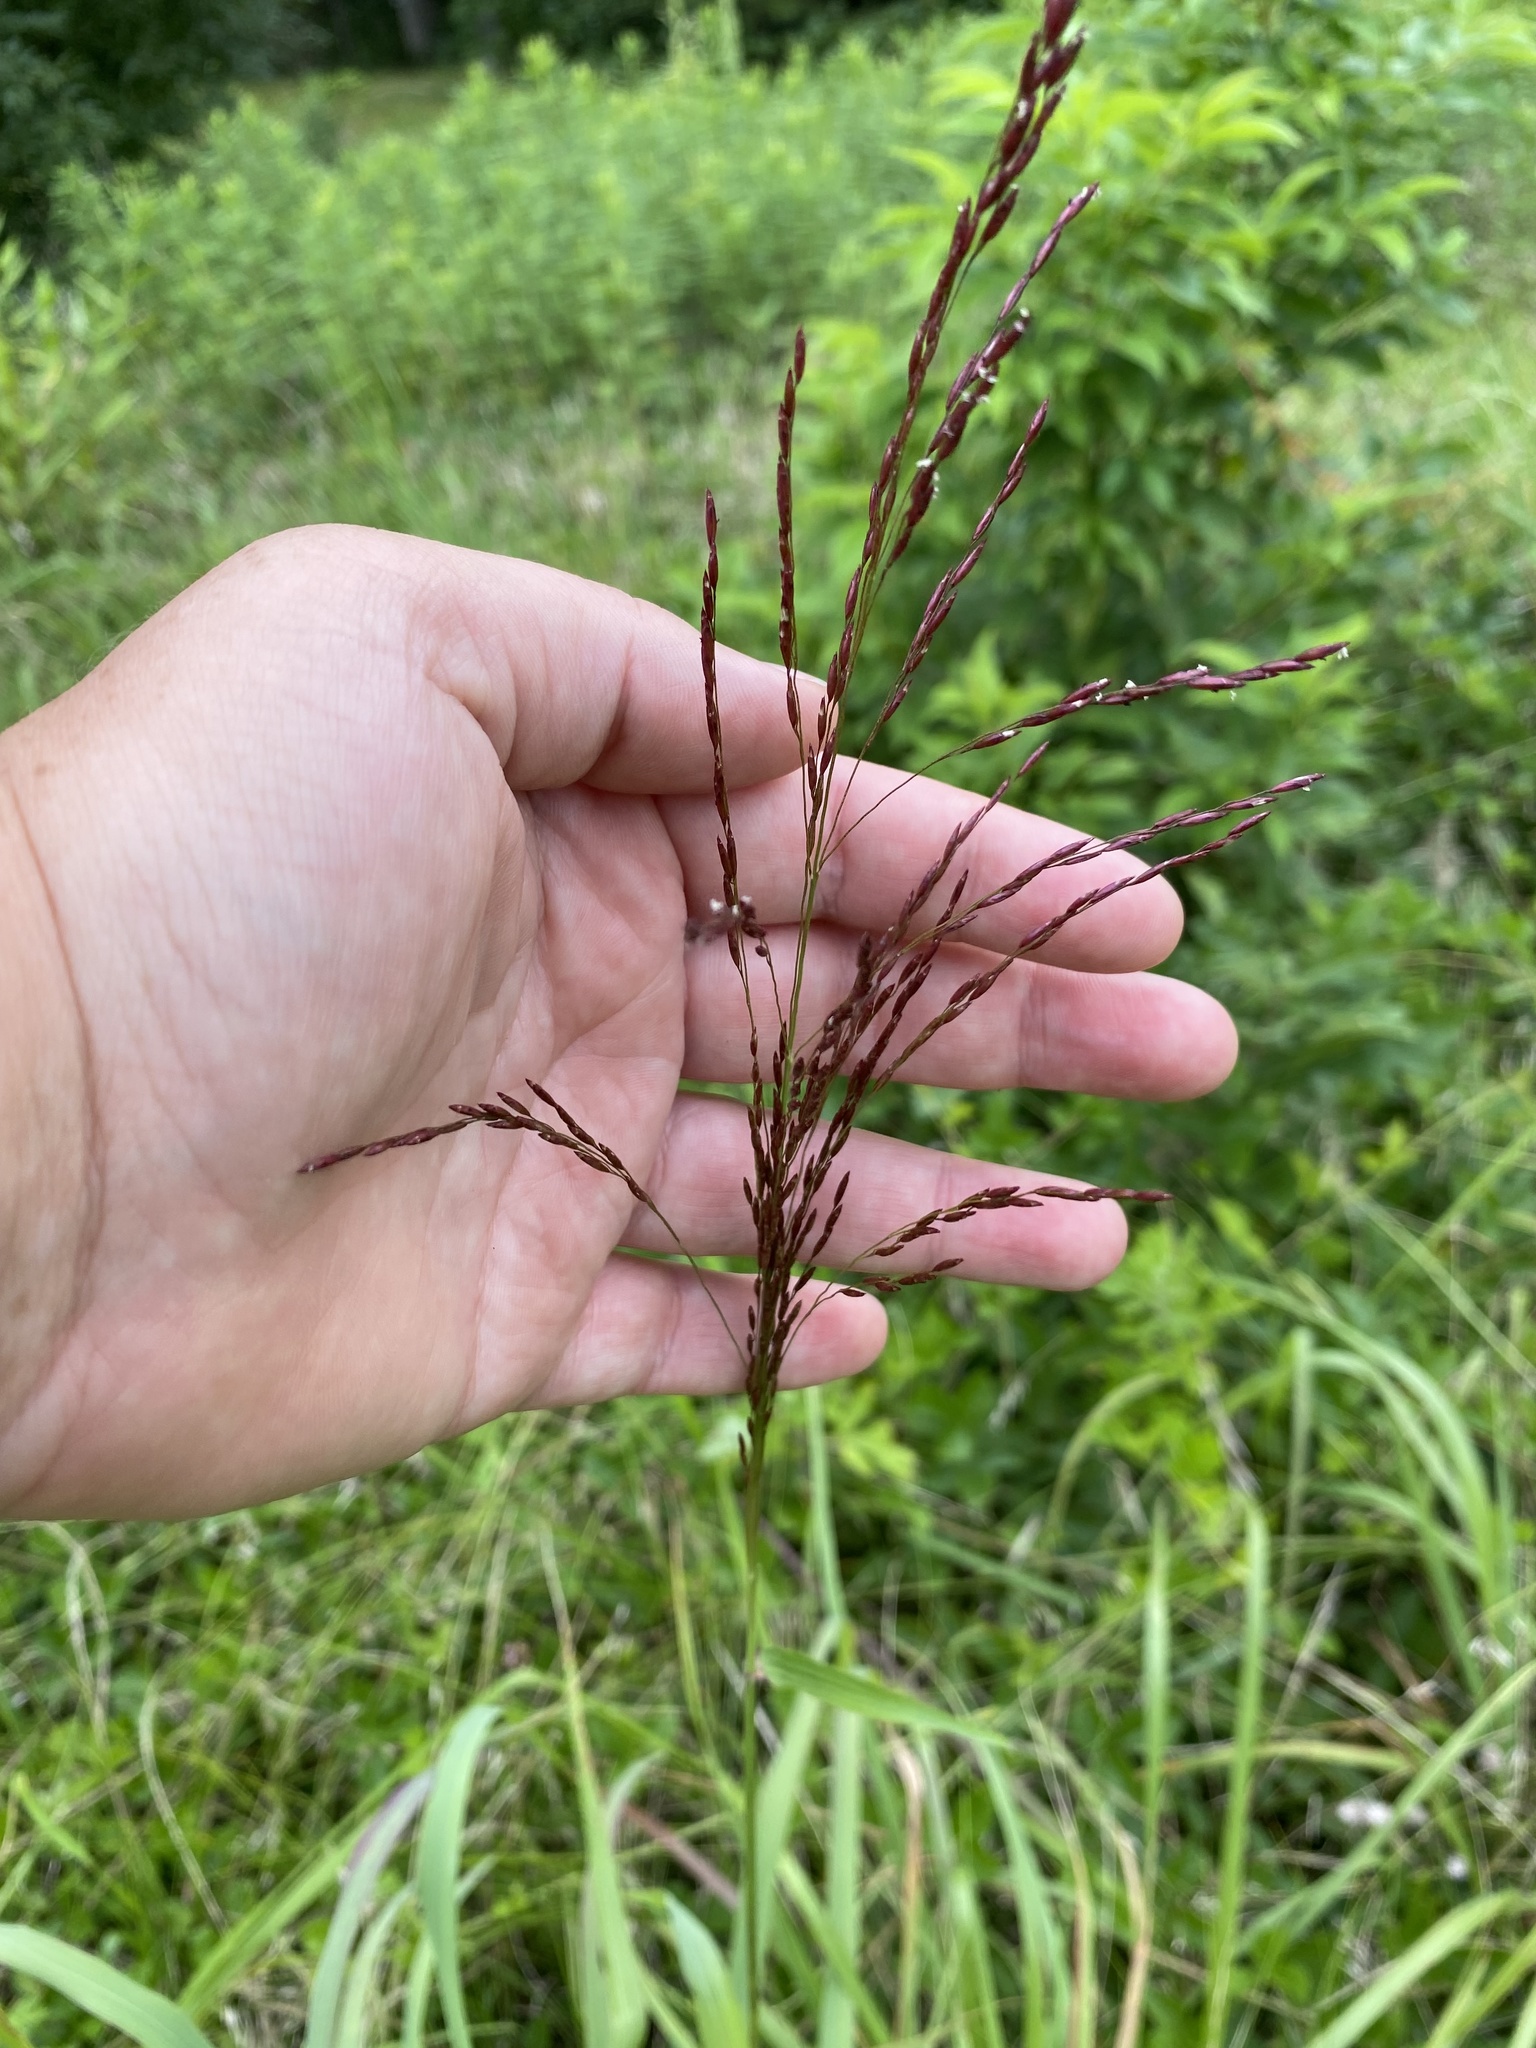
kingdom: Plantae
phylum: Tracheophyta
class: Liliopsida
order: Poales
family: Poaceae
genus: Tridens
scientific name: Tridens flavus
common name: Purpletop
